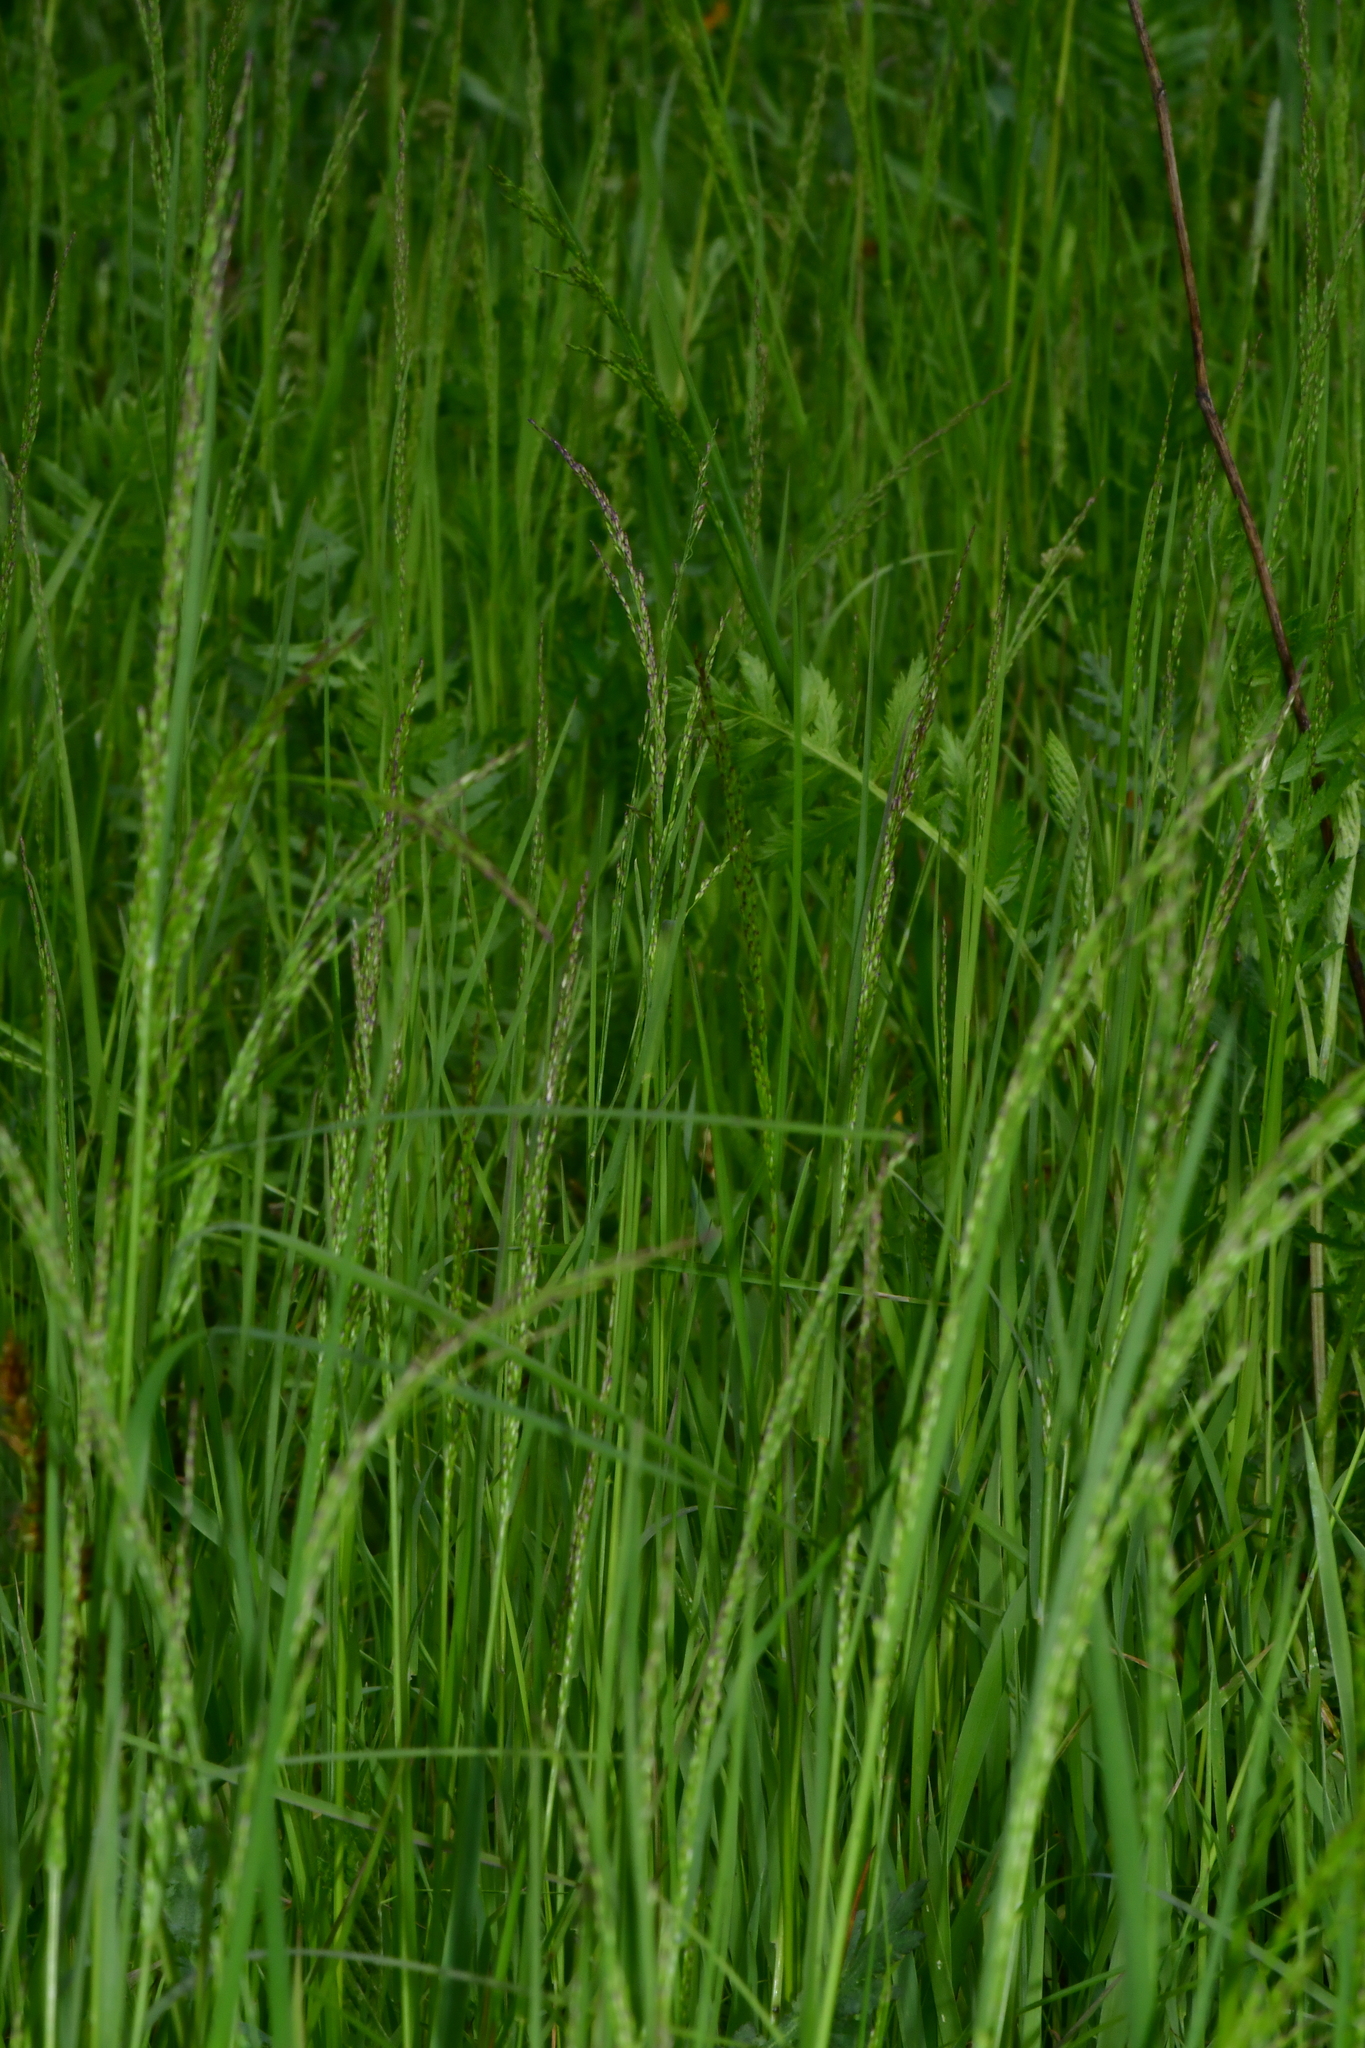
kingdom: Plantae
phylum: Tracheophyta
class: Liliopsida
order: Poales
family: Poaceae
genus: Poa
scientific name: Poa palustris
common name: Swamp meadow-grass
